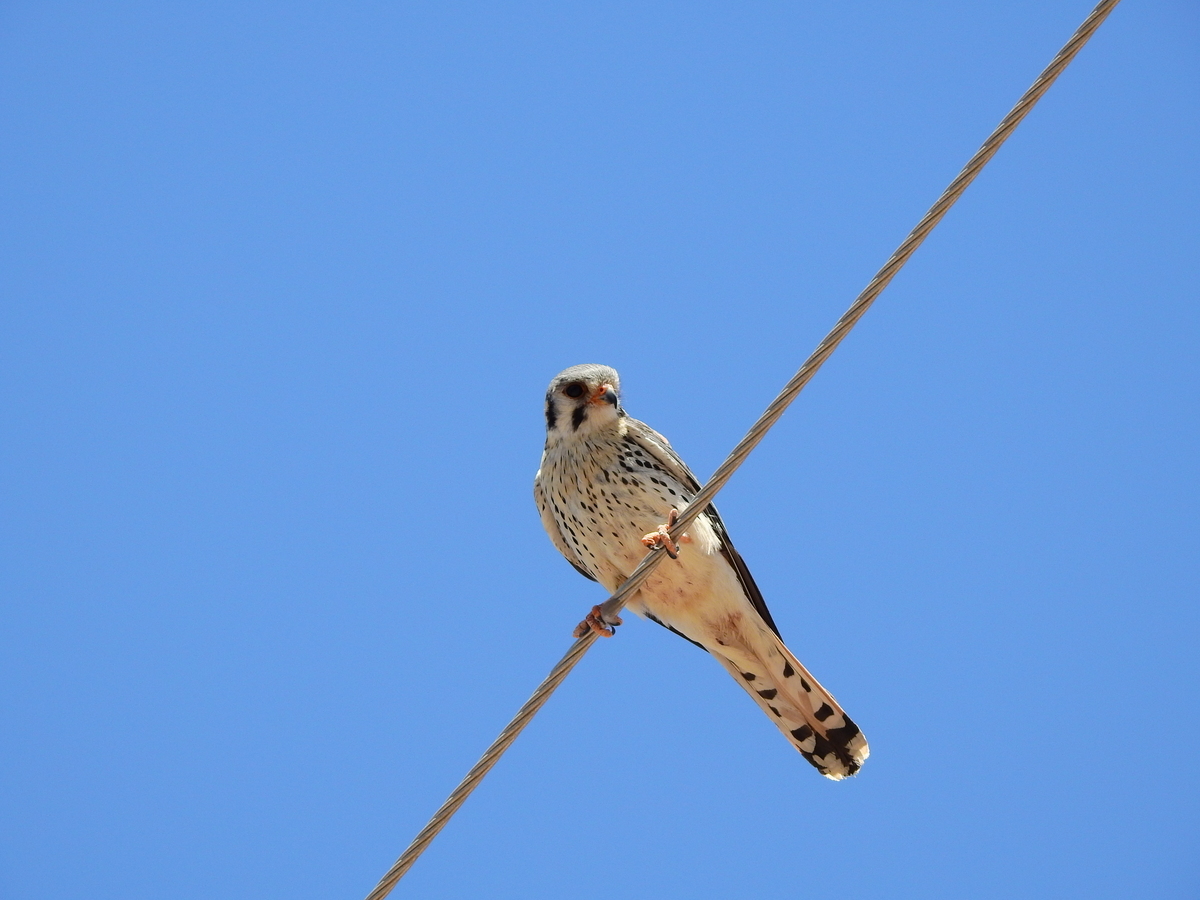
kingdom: Animalia
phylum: Chordata
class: Aves
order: Falconiformes
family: Falconidae
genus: Falco
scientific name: Falco sparverius
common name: American kestrel
